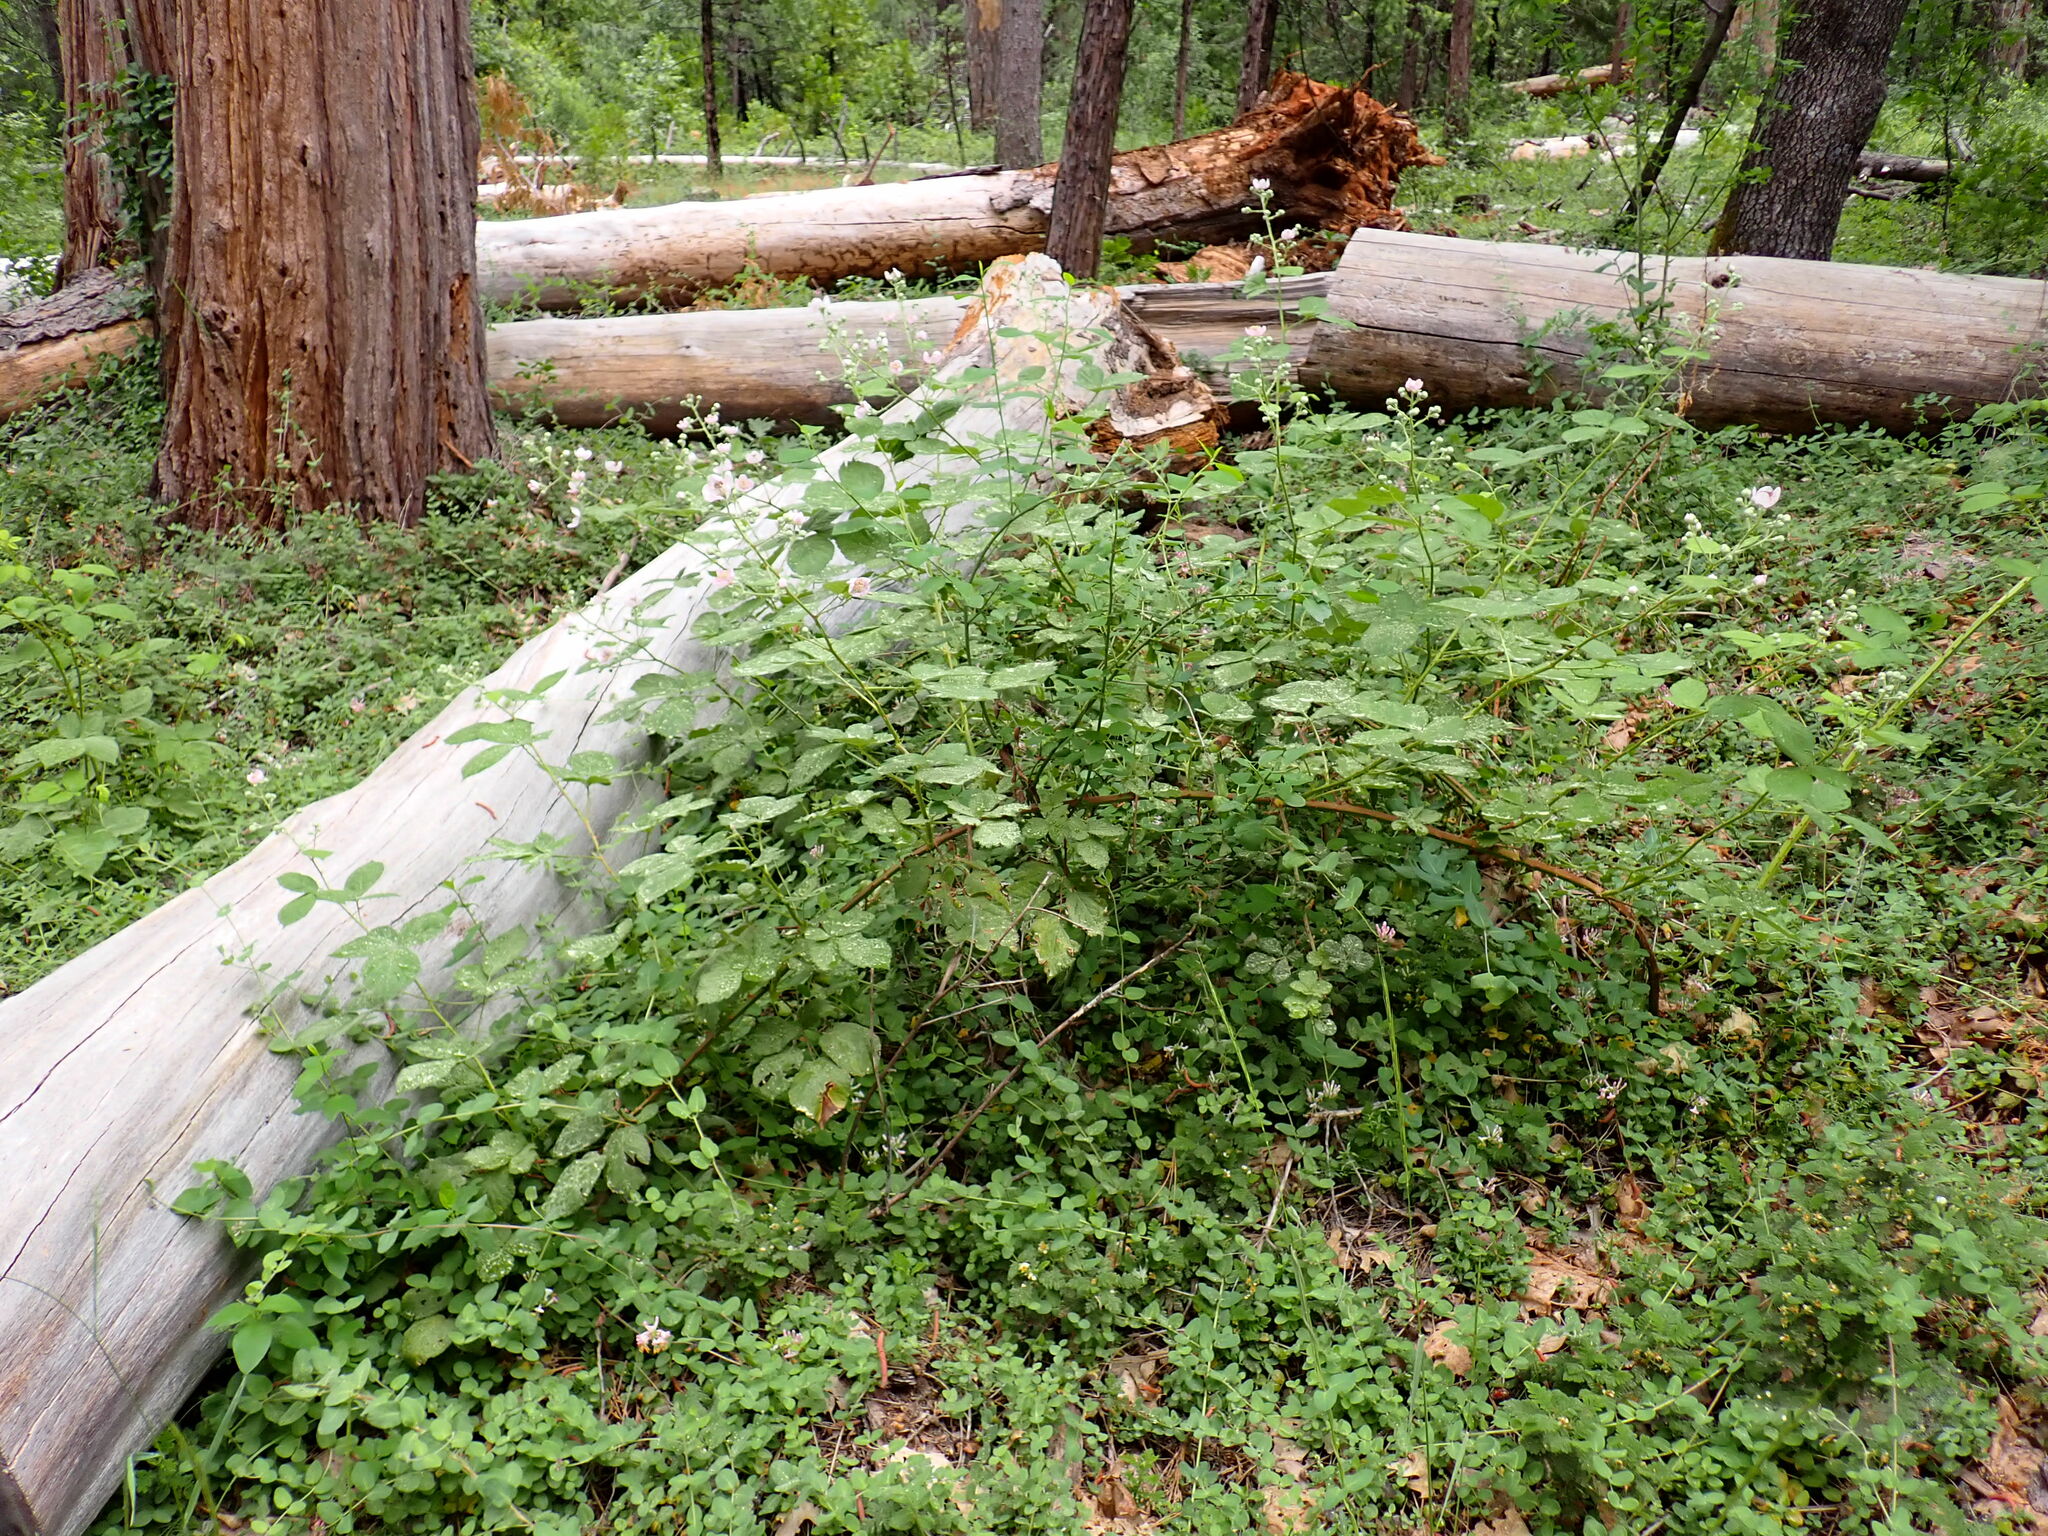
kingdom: Plantae
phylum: Tracheophyta
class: Magnoliopsida
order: Rosales
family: Rosaceae
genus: Rubus
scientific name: Rubus armeniacus
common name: Himalayan blackberry
